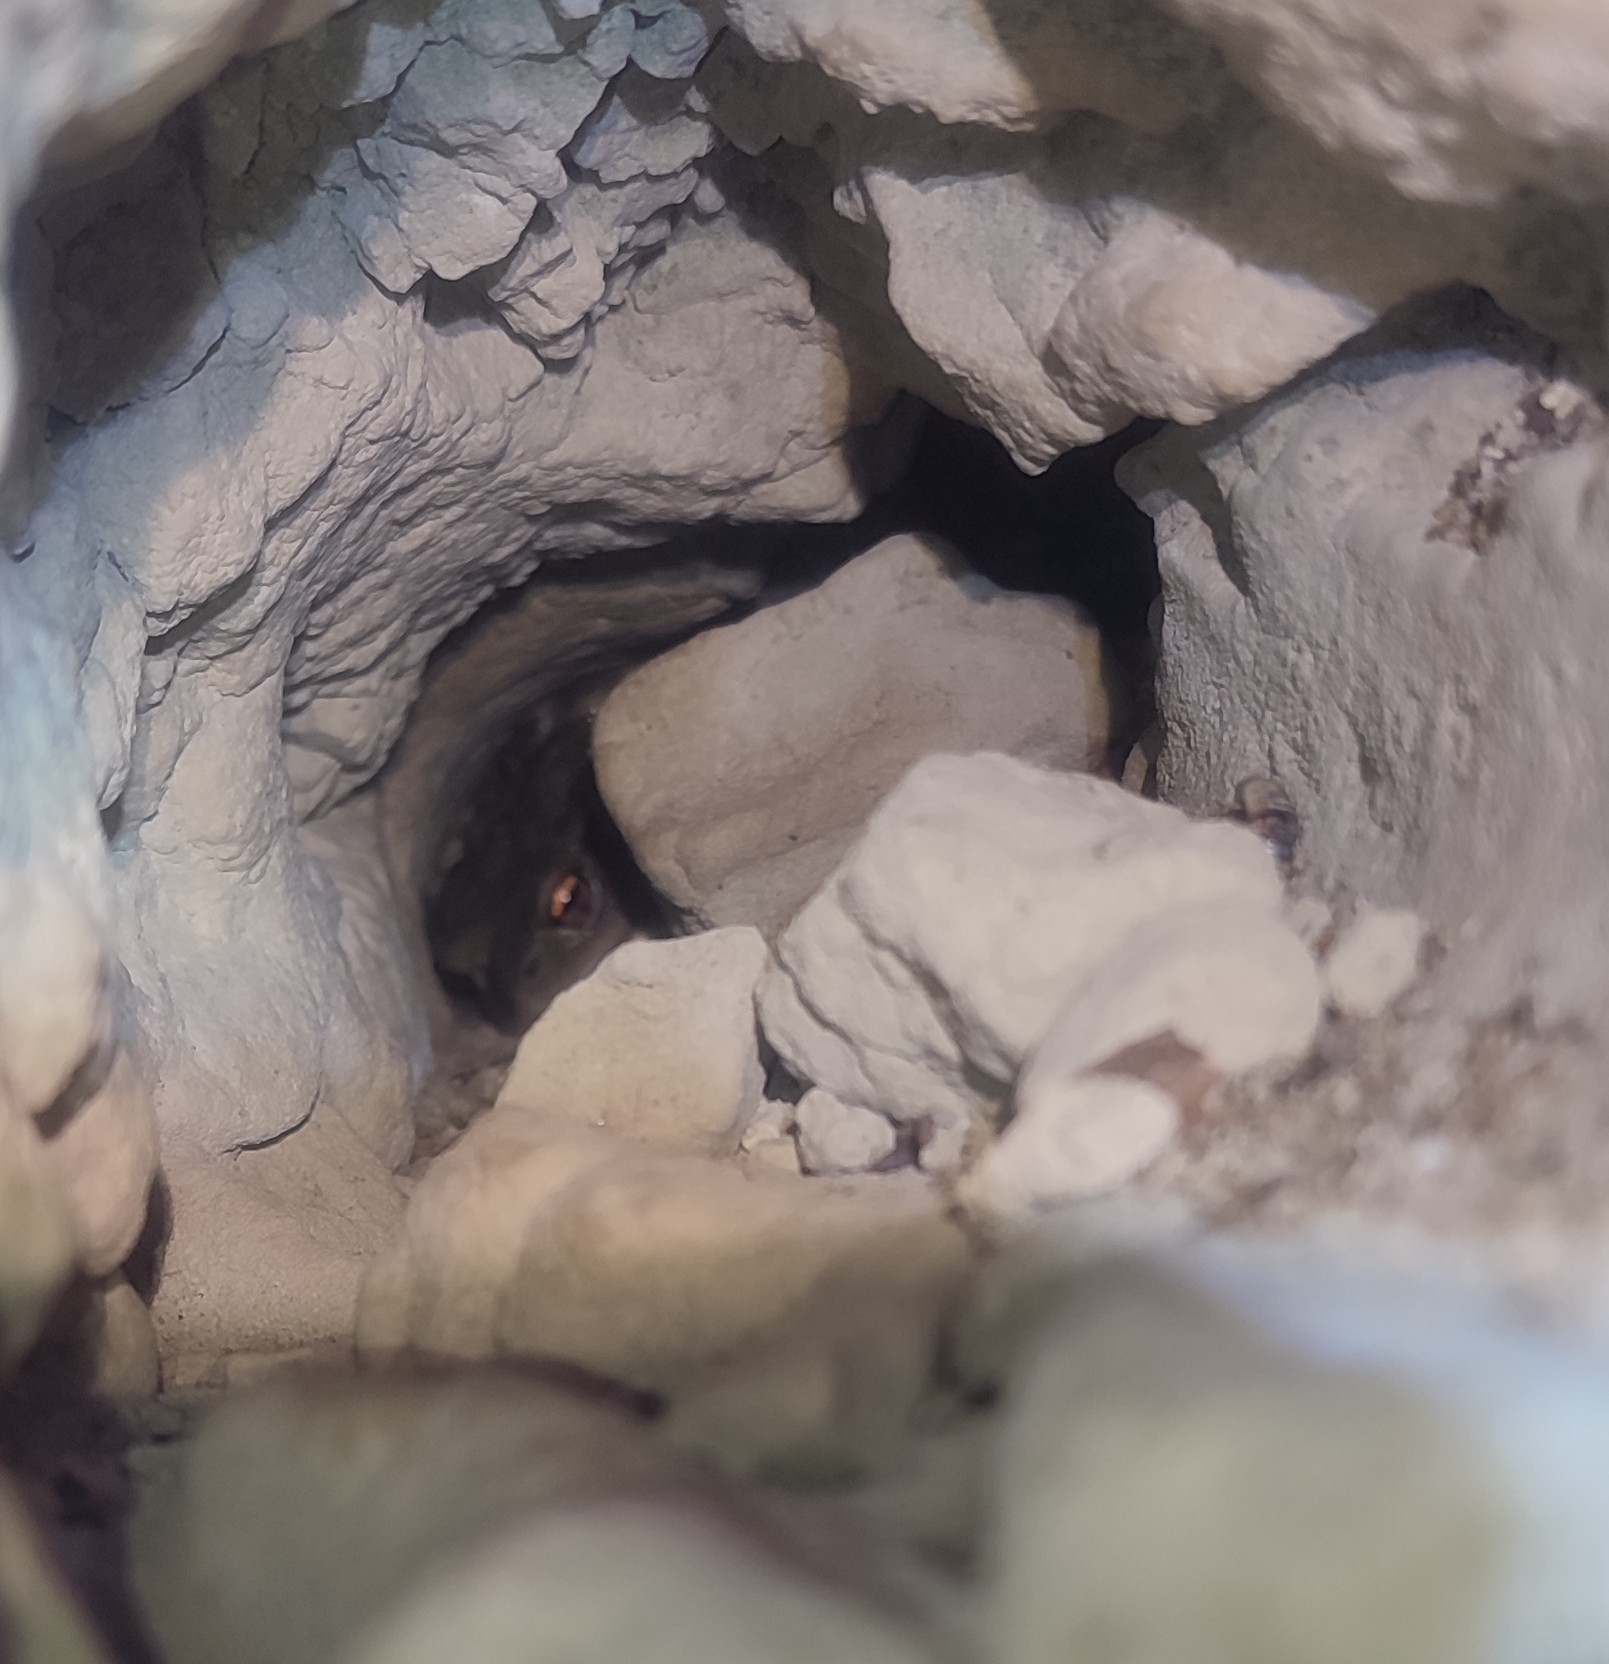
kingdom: Animalia
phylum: Chordata
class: Amphibia
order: Anura
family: Bufonidae
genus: Bufo
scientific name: Bufo spinosus
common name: Western common toad
